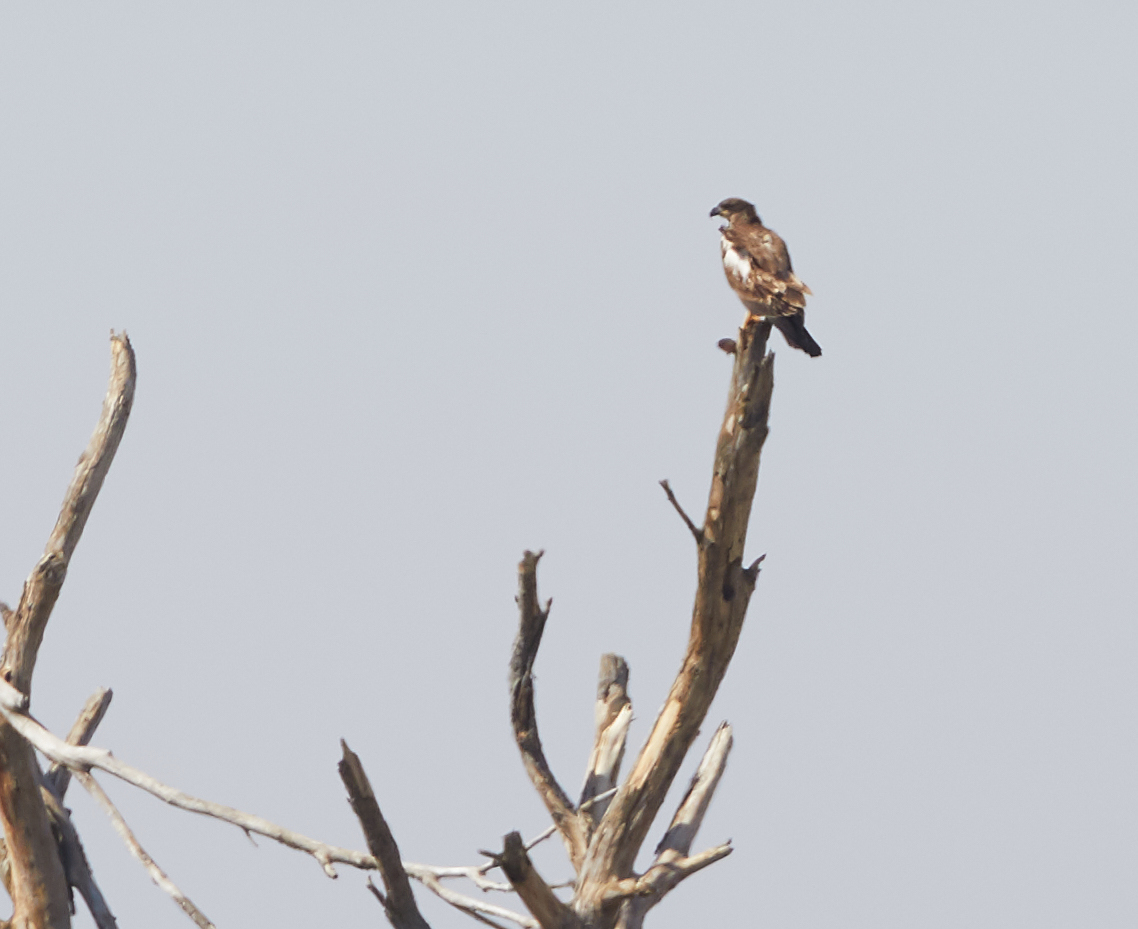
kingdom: Animalia
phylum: Chordata
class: Aves
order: Accipitriformes
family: Accipitridae
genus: Haliaeetus
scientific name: Haliaeetus leucocephalus
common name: Bald eagle
